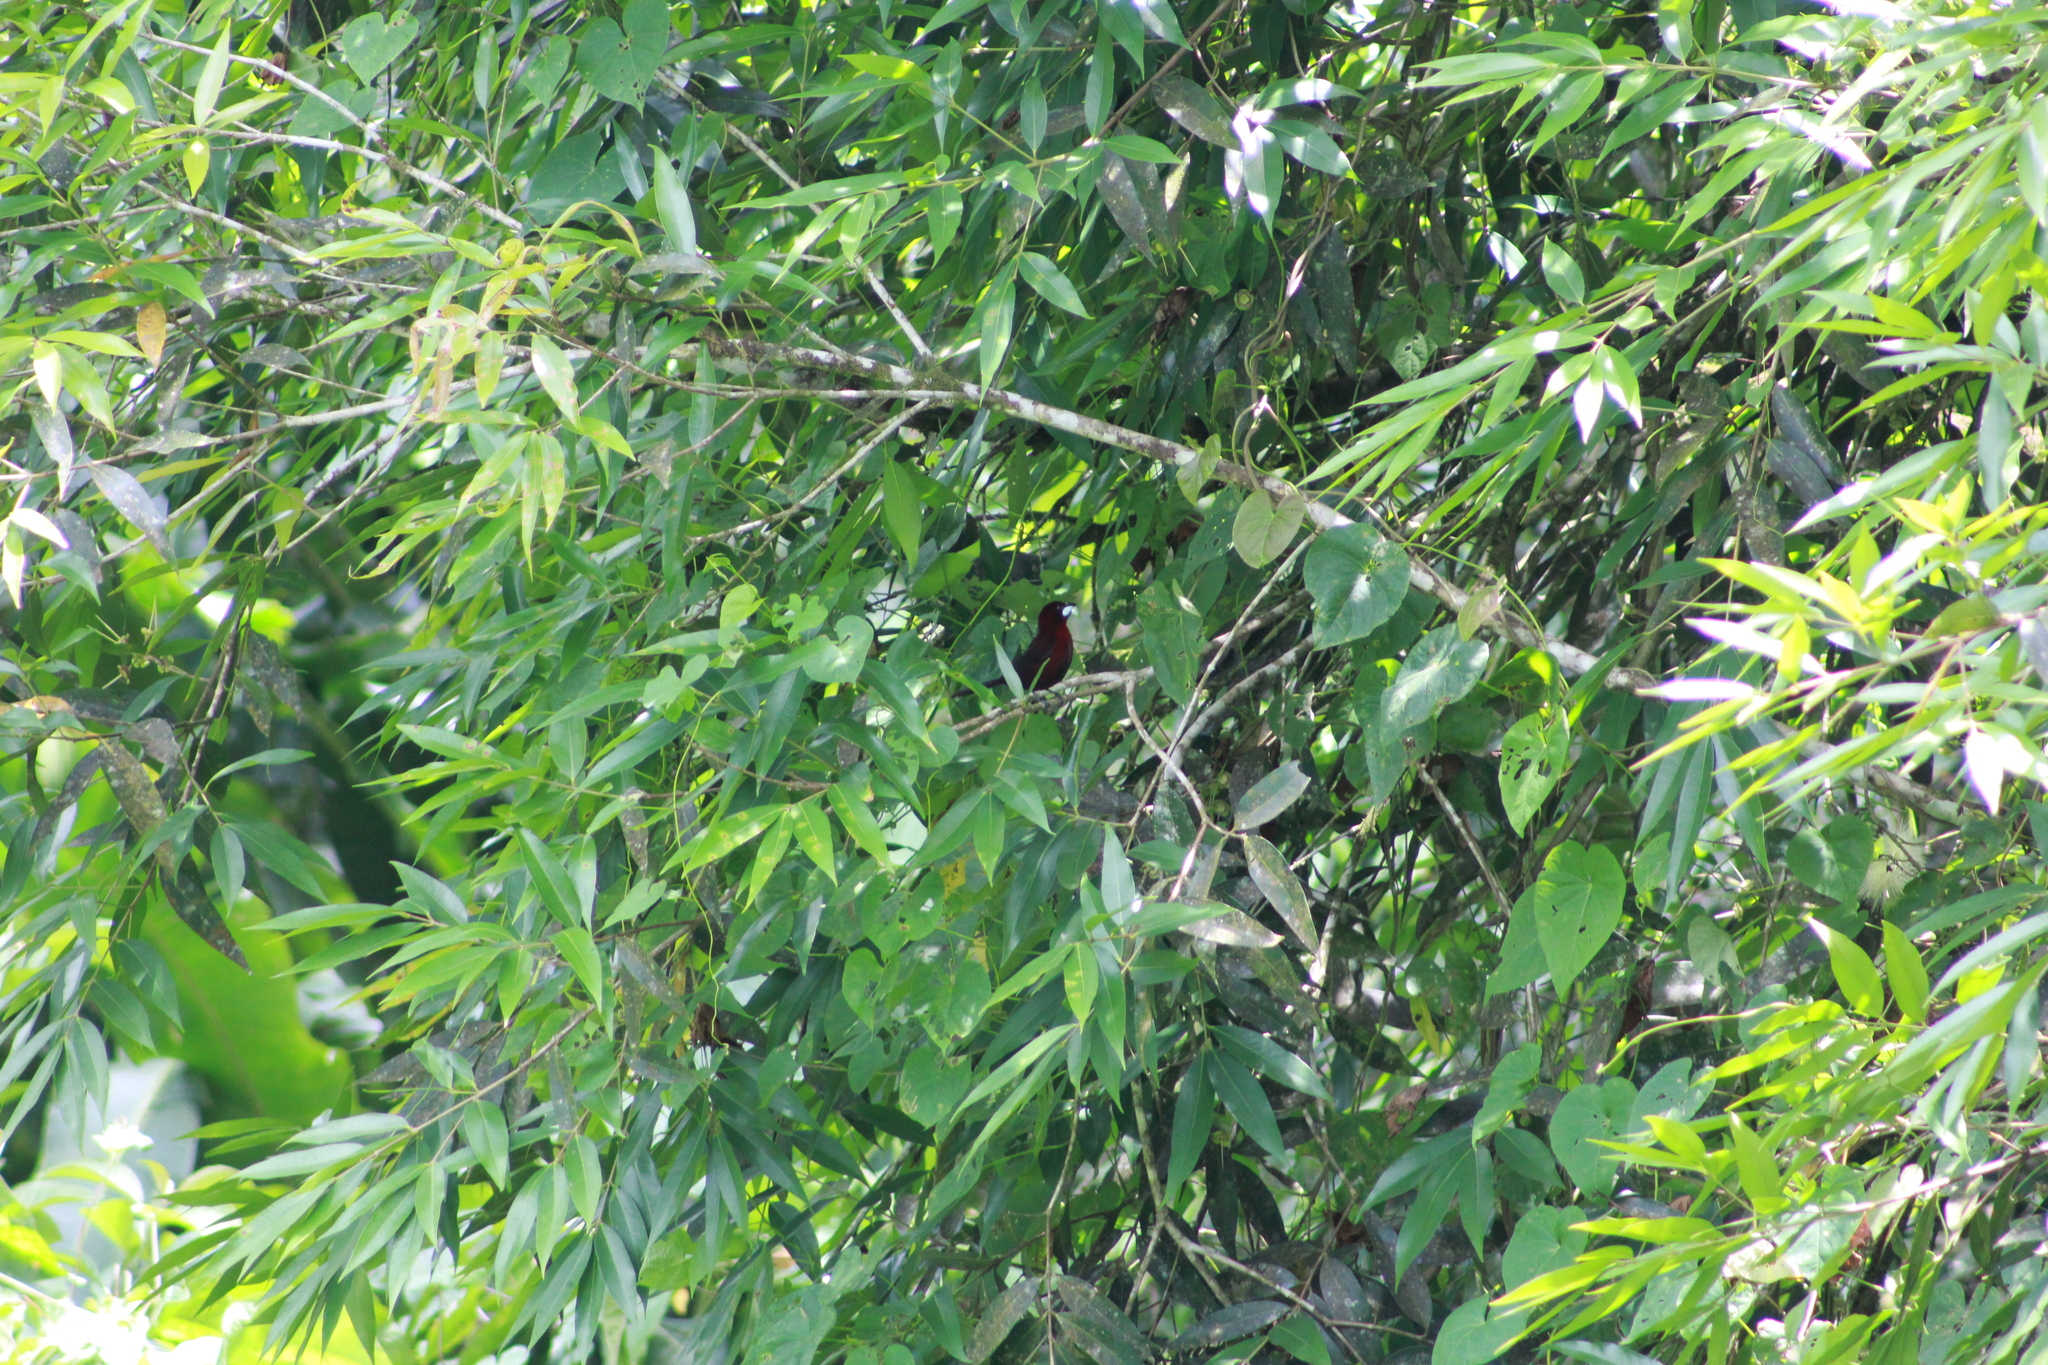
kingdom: Animalia
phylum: Chordata
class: Aves
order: Passeriformes
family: Thraupidae
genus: Ramphocelus
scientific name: Ramphocelus carbo
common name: Silver-beaked tanager
